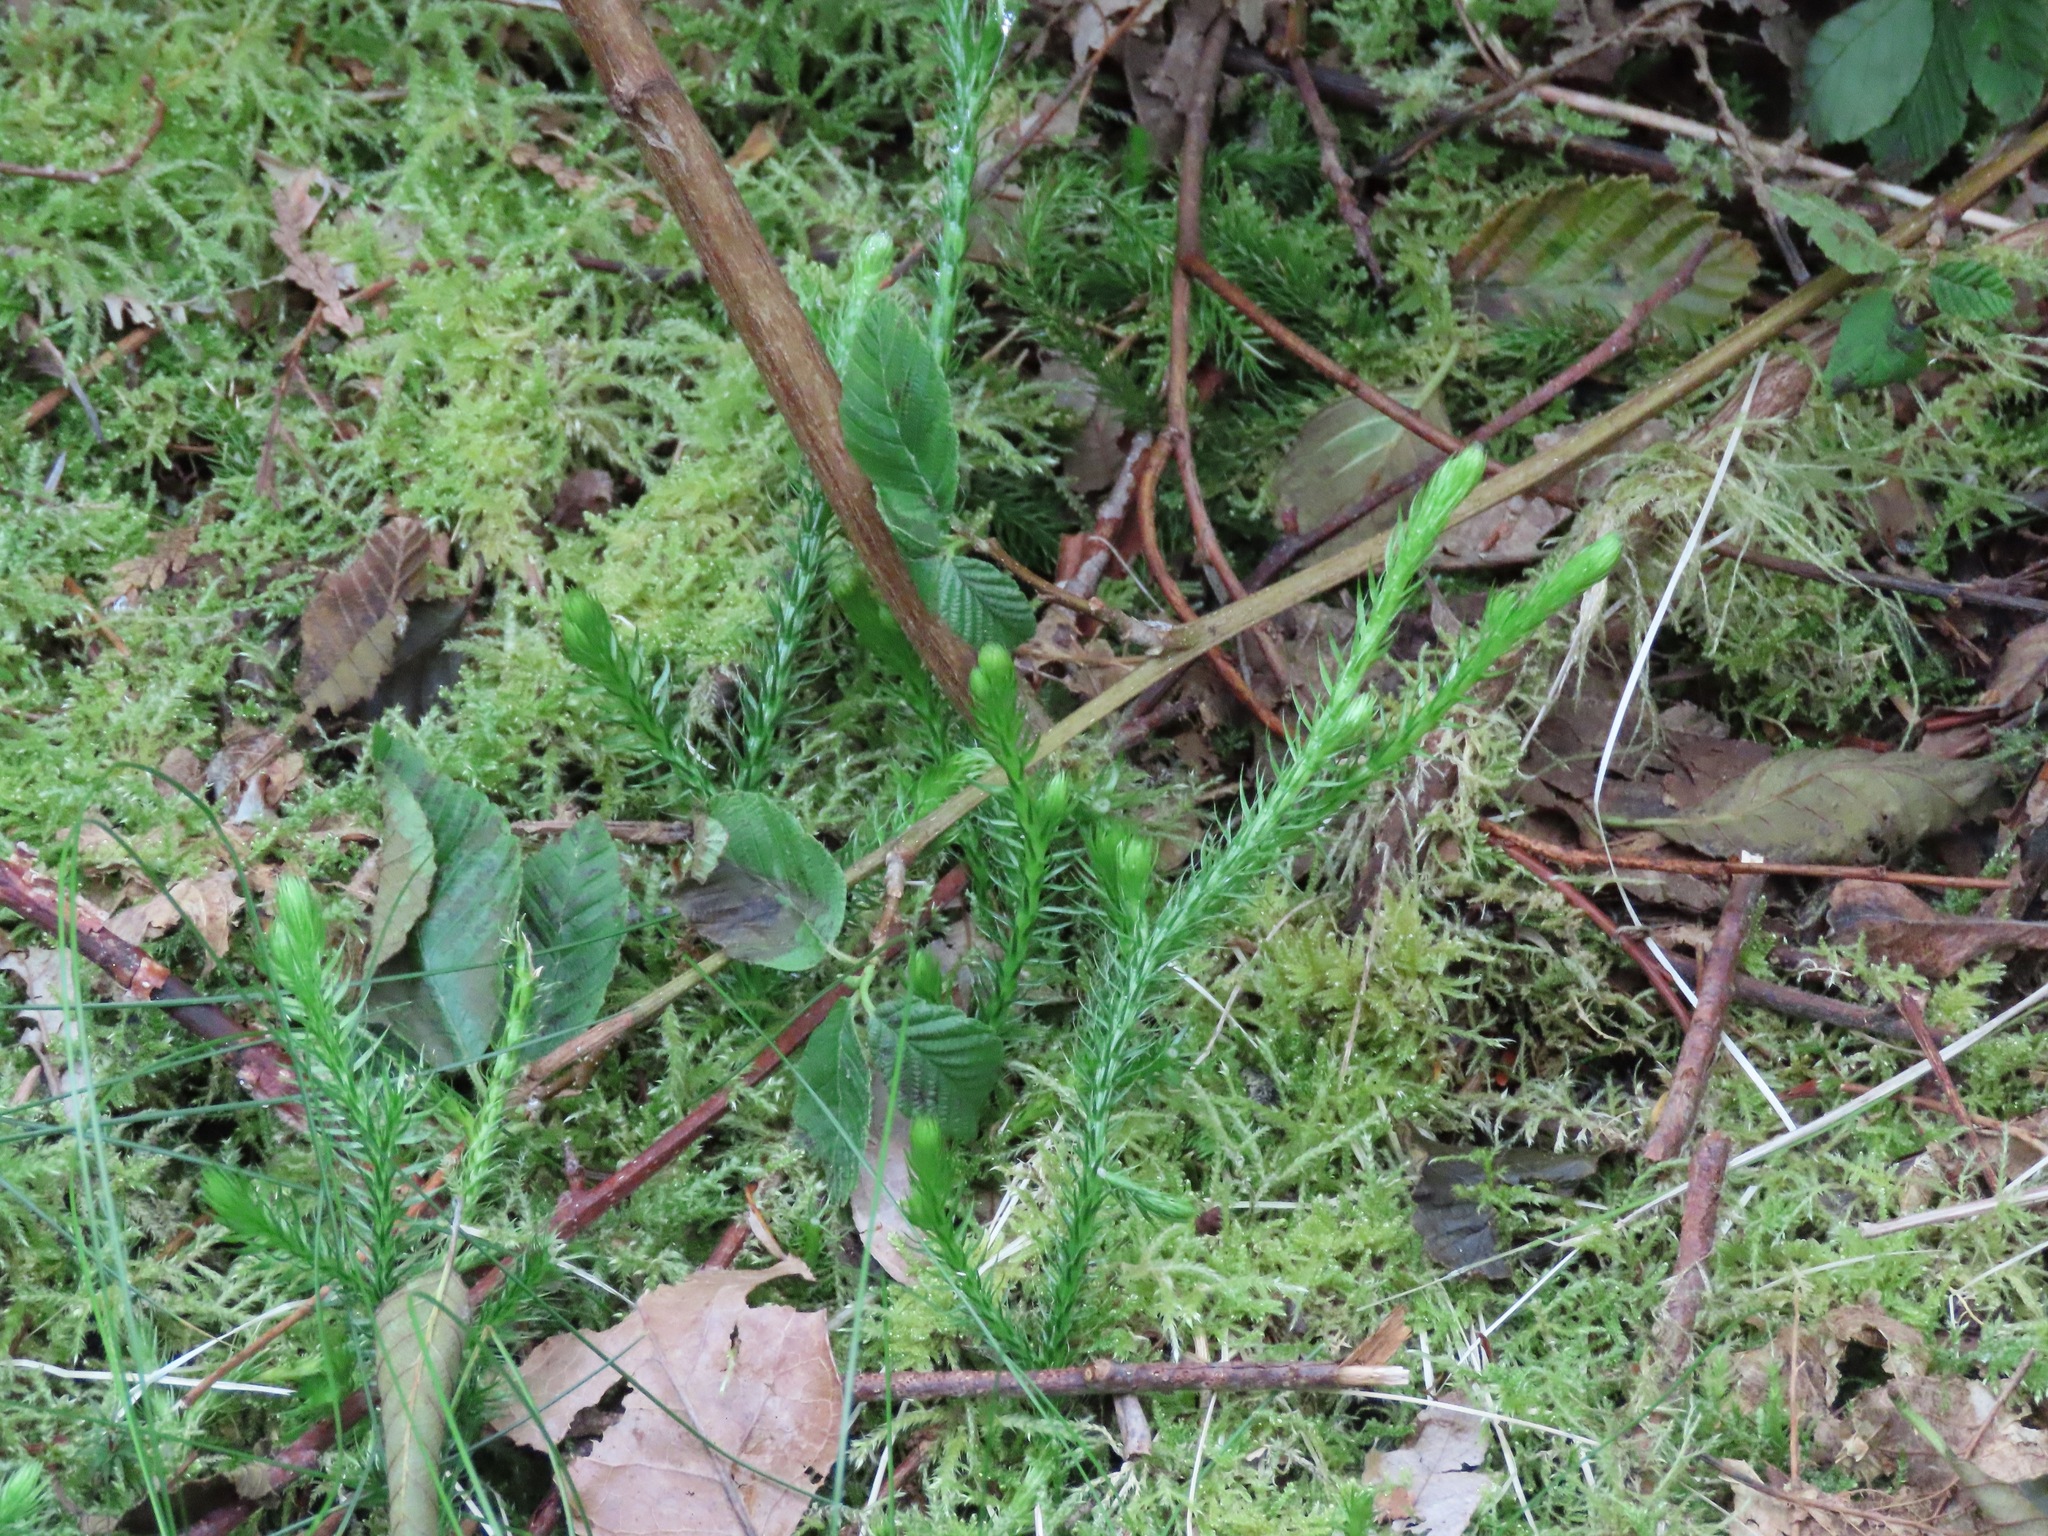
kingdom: Plantae
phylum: Tracheophyta
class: Lycopodiopsida
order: Lycopodiales
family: Lycopodiaceae
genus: Lycopodium
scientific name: Lycopodium clavatum
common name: Stag's-horn clubmoss
